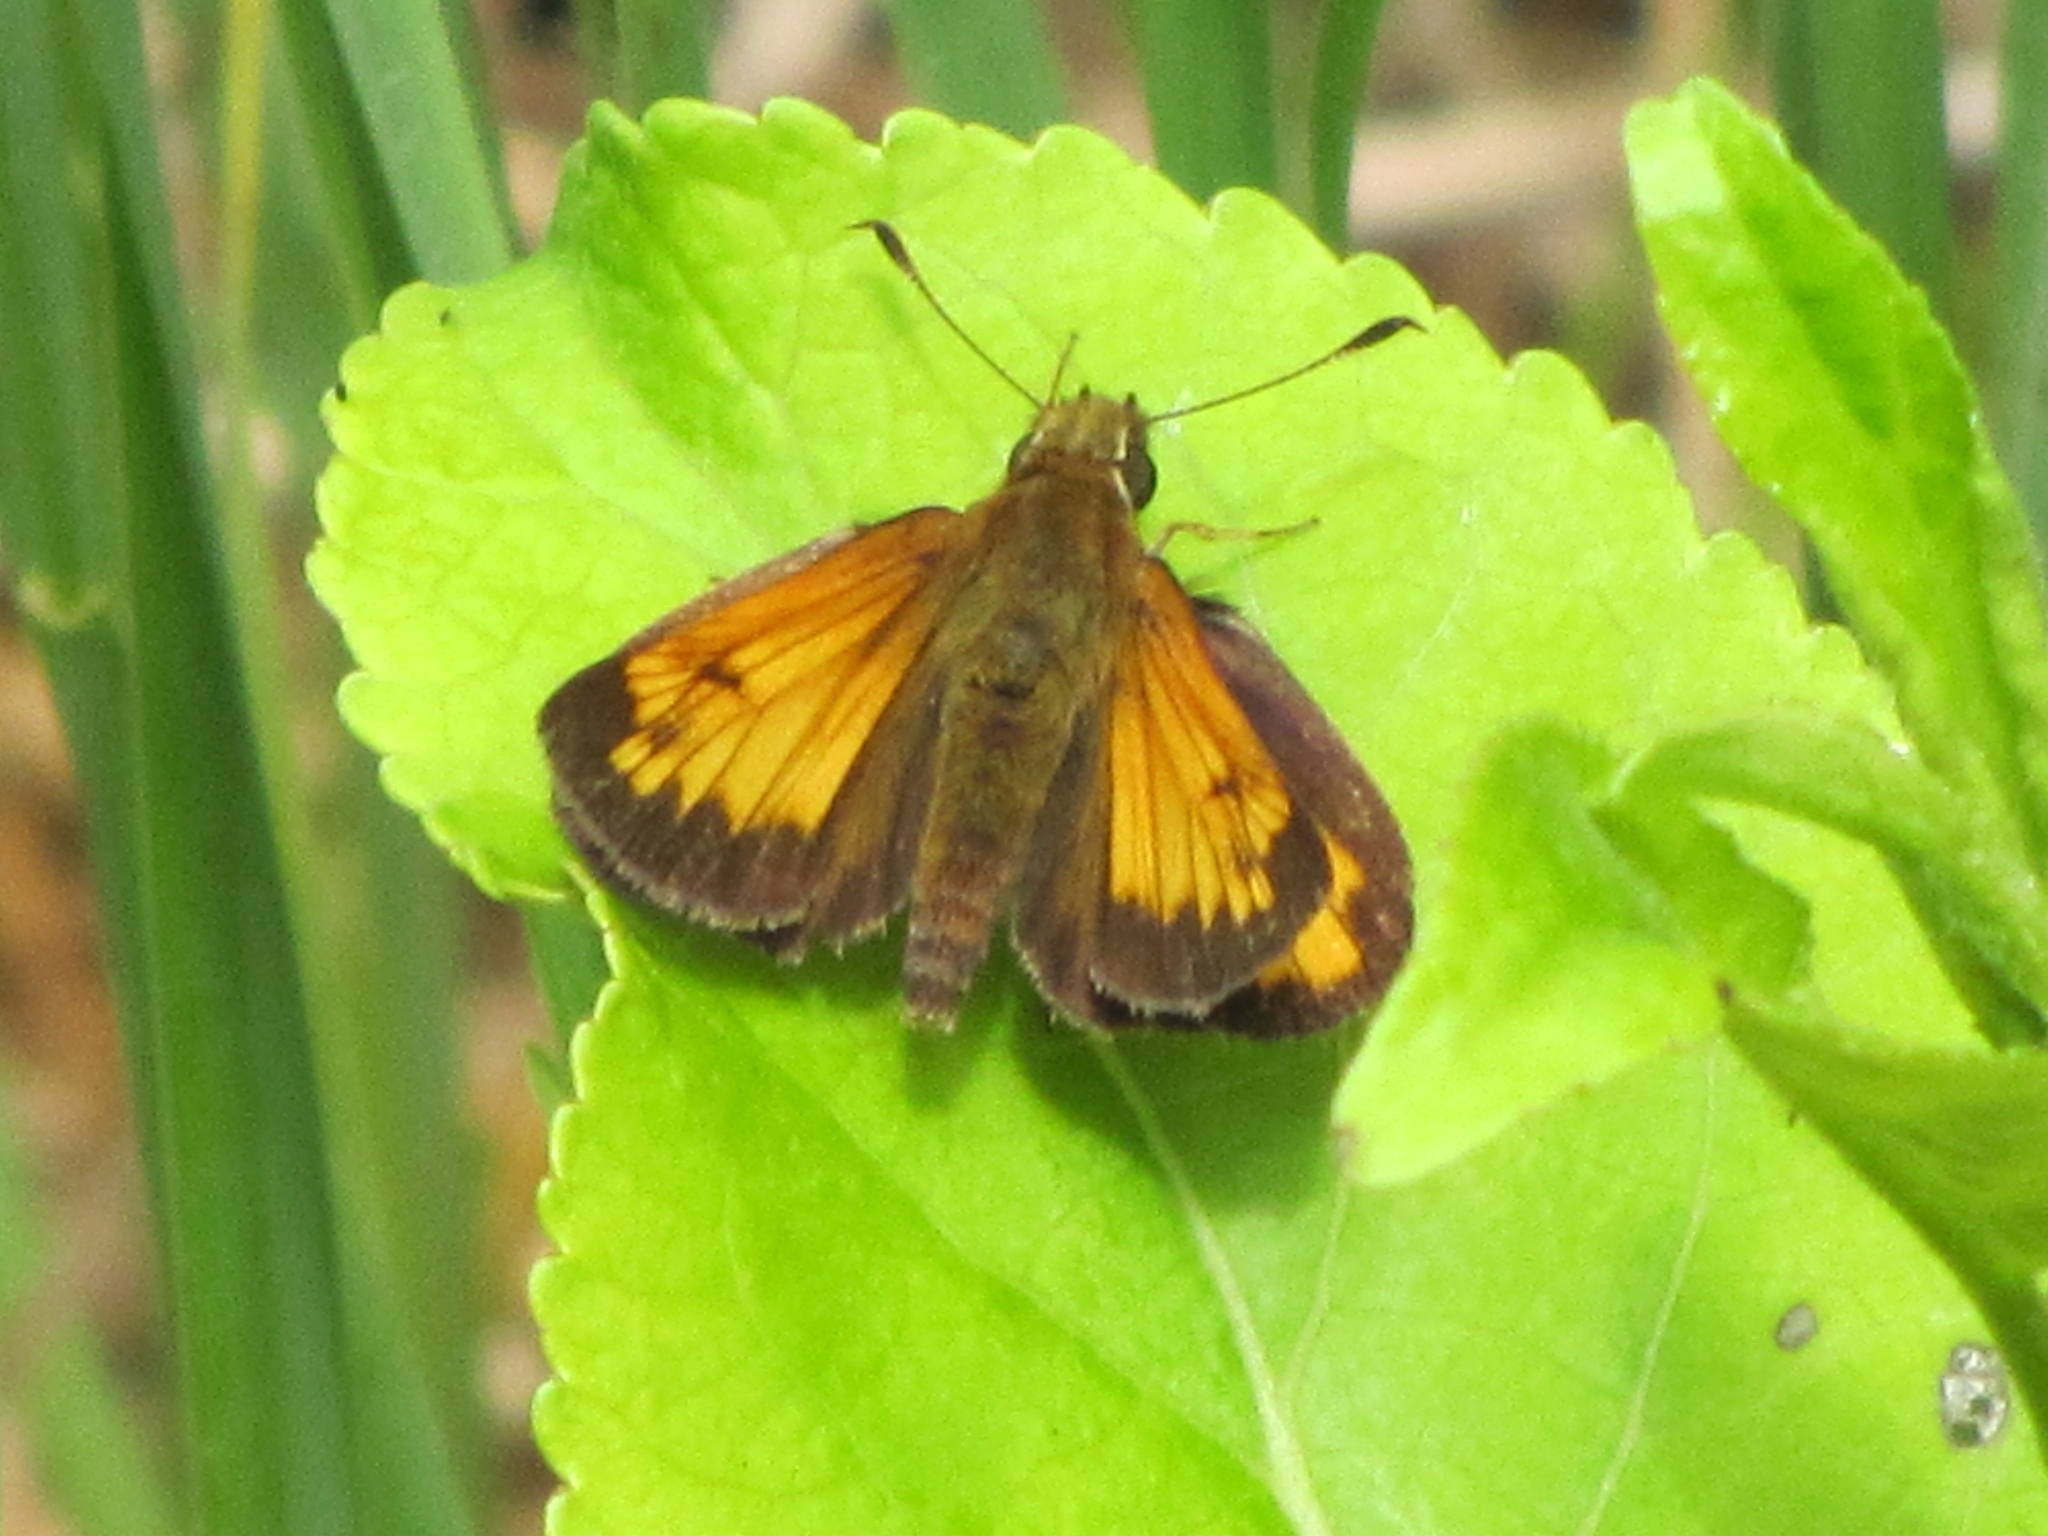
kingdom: Animalia
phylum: Arthropoda
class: Insecta
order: Lepidoptera
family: Hesperiidae
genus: Lon
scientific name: Lon hobomok
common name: Hobomok skipper
